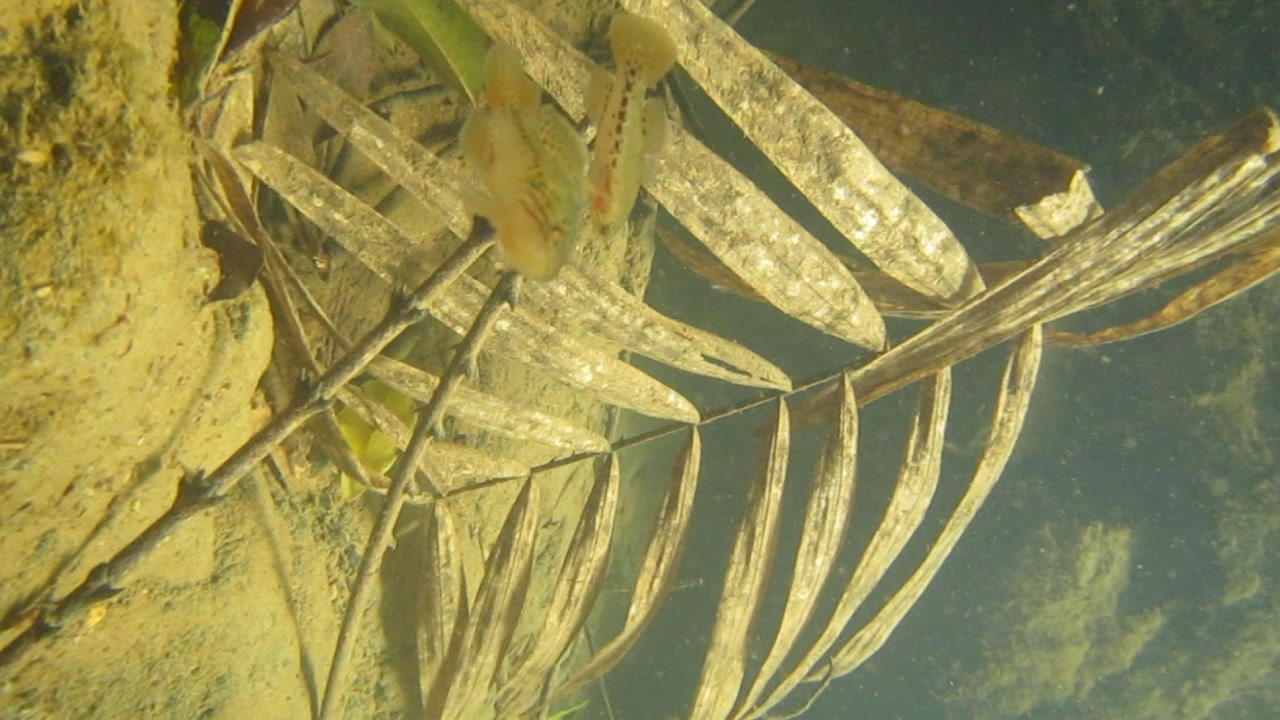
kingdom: Animalia
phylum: Chordata
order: Perciformes
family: Eleotridae
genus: Mogurnda
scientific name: Mogurnda
